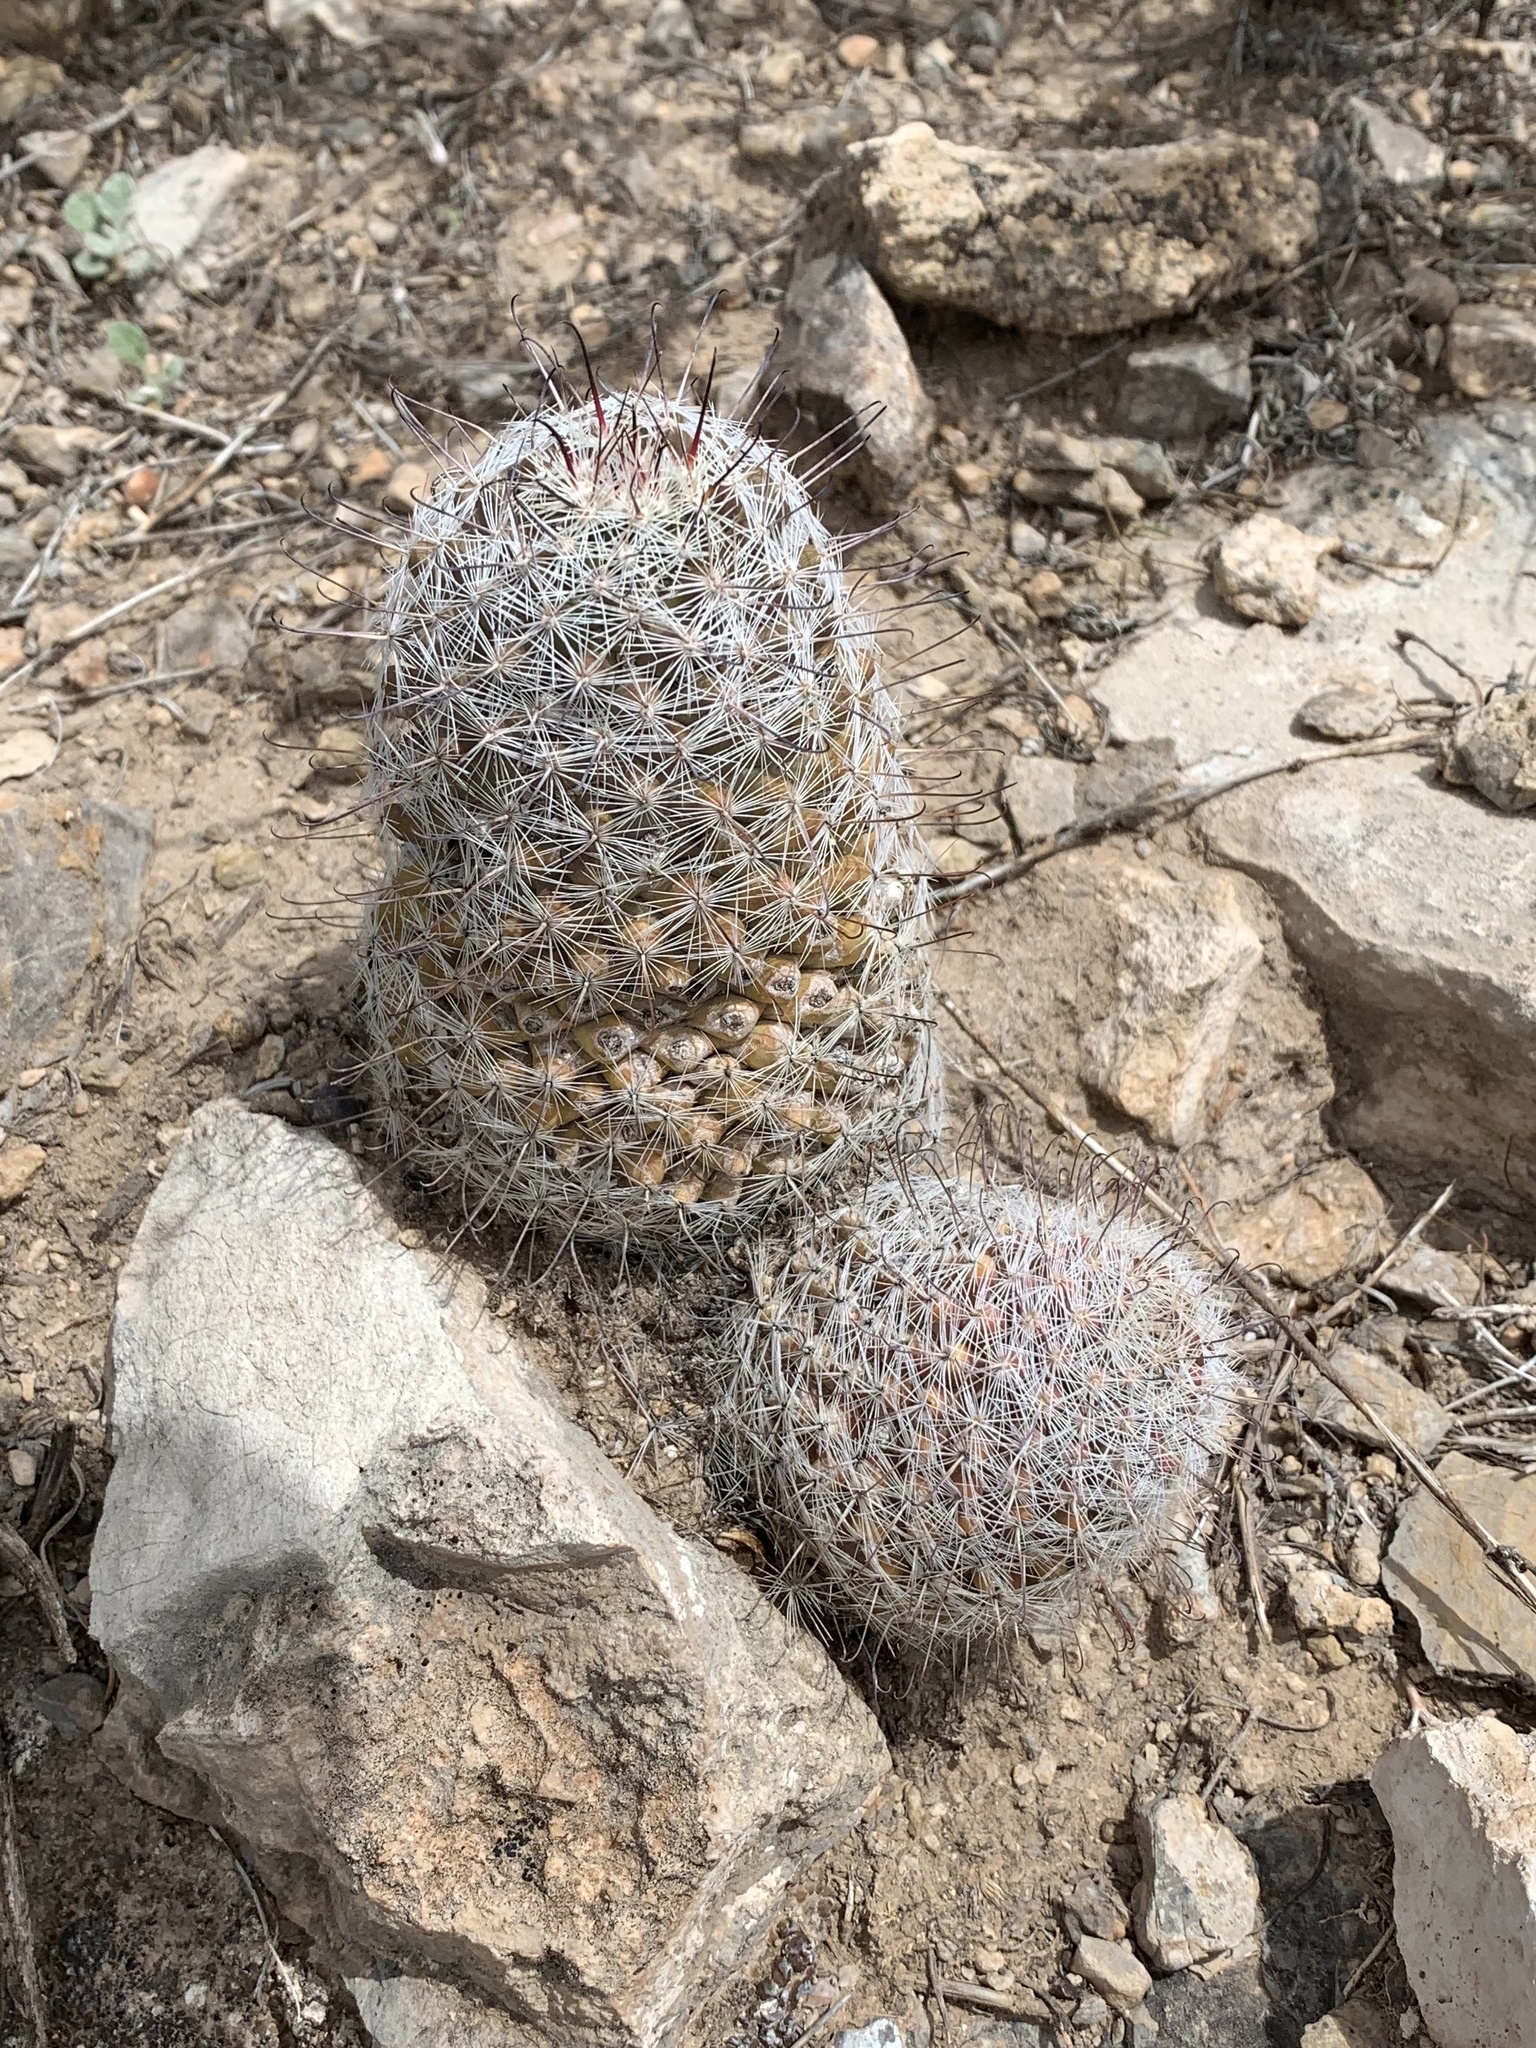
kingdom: Plantae
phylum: Tracheophyta
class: Magnoliopsida
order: Caryophyllales
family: Cactaceae
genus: Cochemiea
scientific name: Cochemiea grahamii
